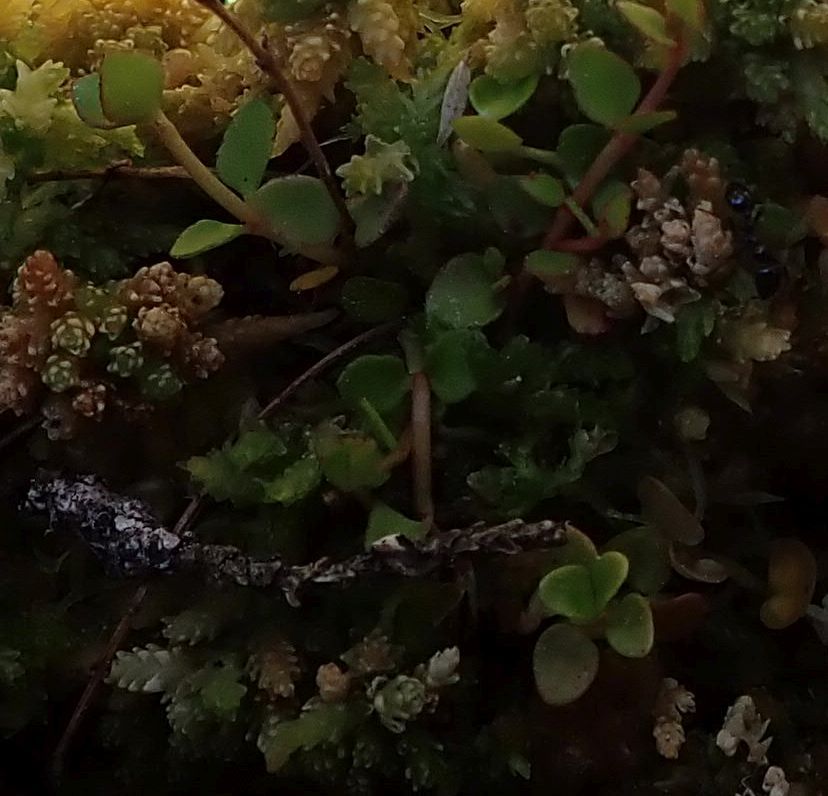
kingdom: Plantae
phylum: Tracheophyta
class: Magnoliopsida
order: Saxifragales
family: Haloragaceae
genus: Gonocarpus
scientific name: Gonocarpus micranthus
